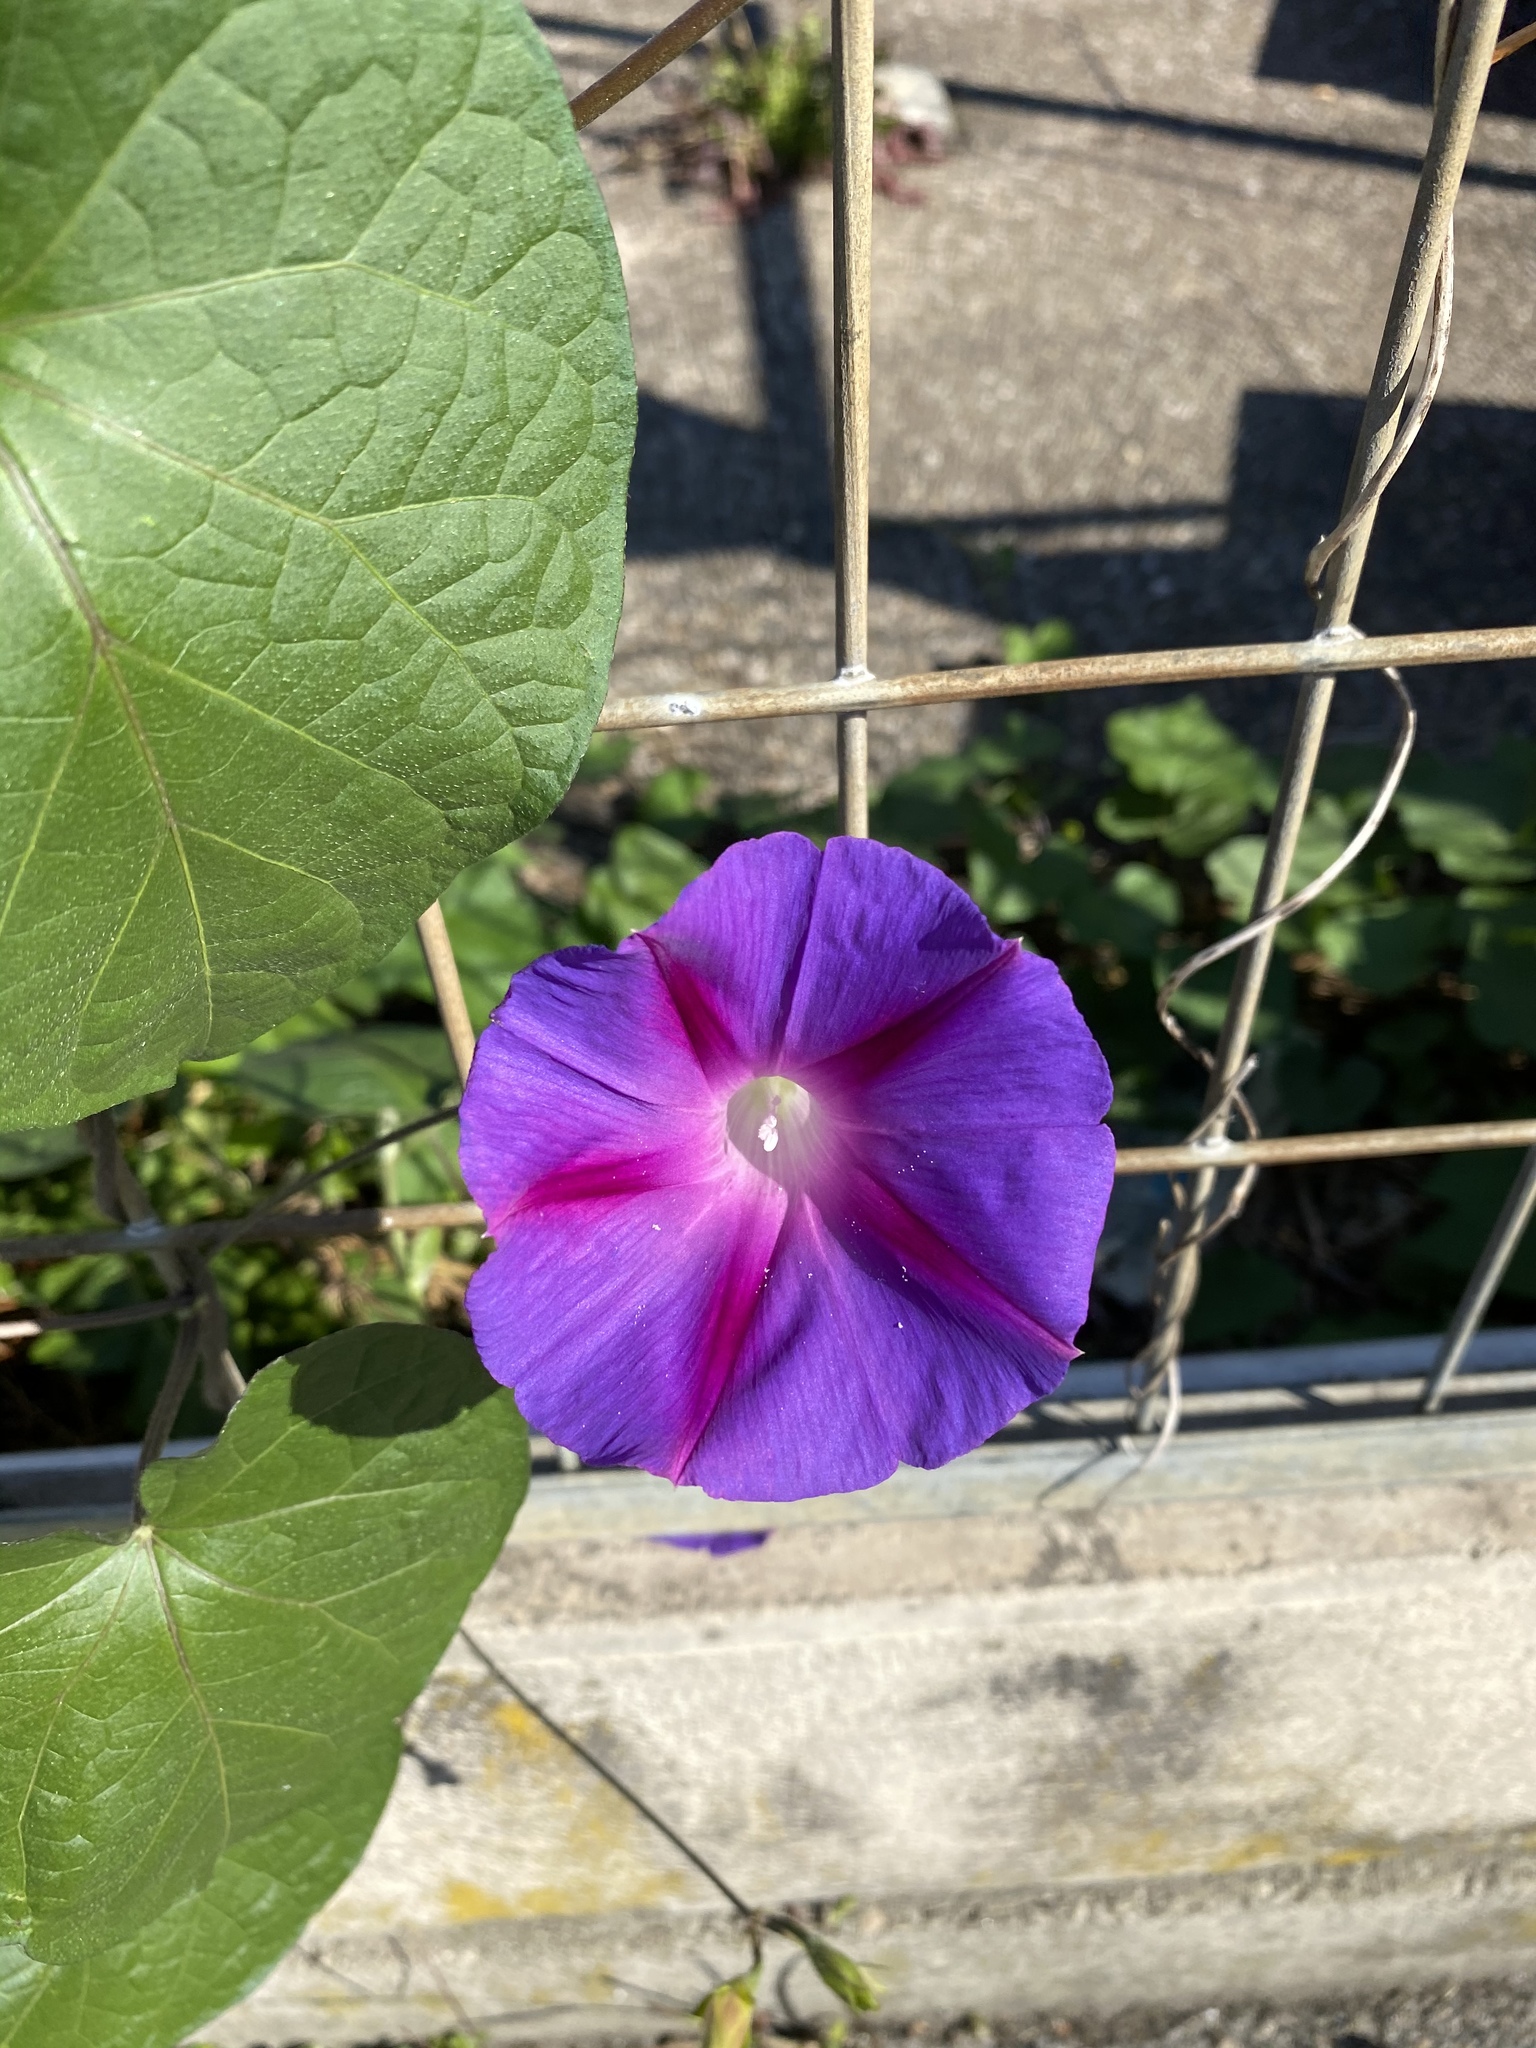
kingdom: Plantae
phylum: Tracheophyta
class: Magnoliopsida
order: Solanales
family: Convolvulaceae
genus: Ipomoea
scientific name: Ipomoea purpurea
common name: Common morning-glory
